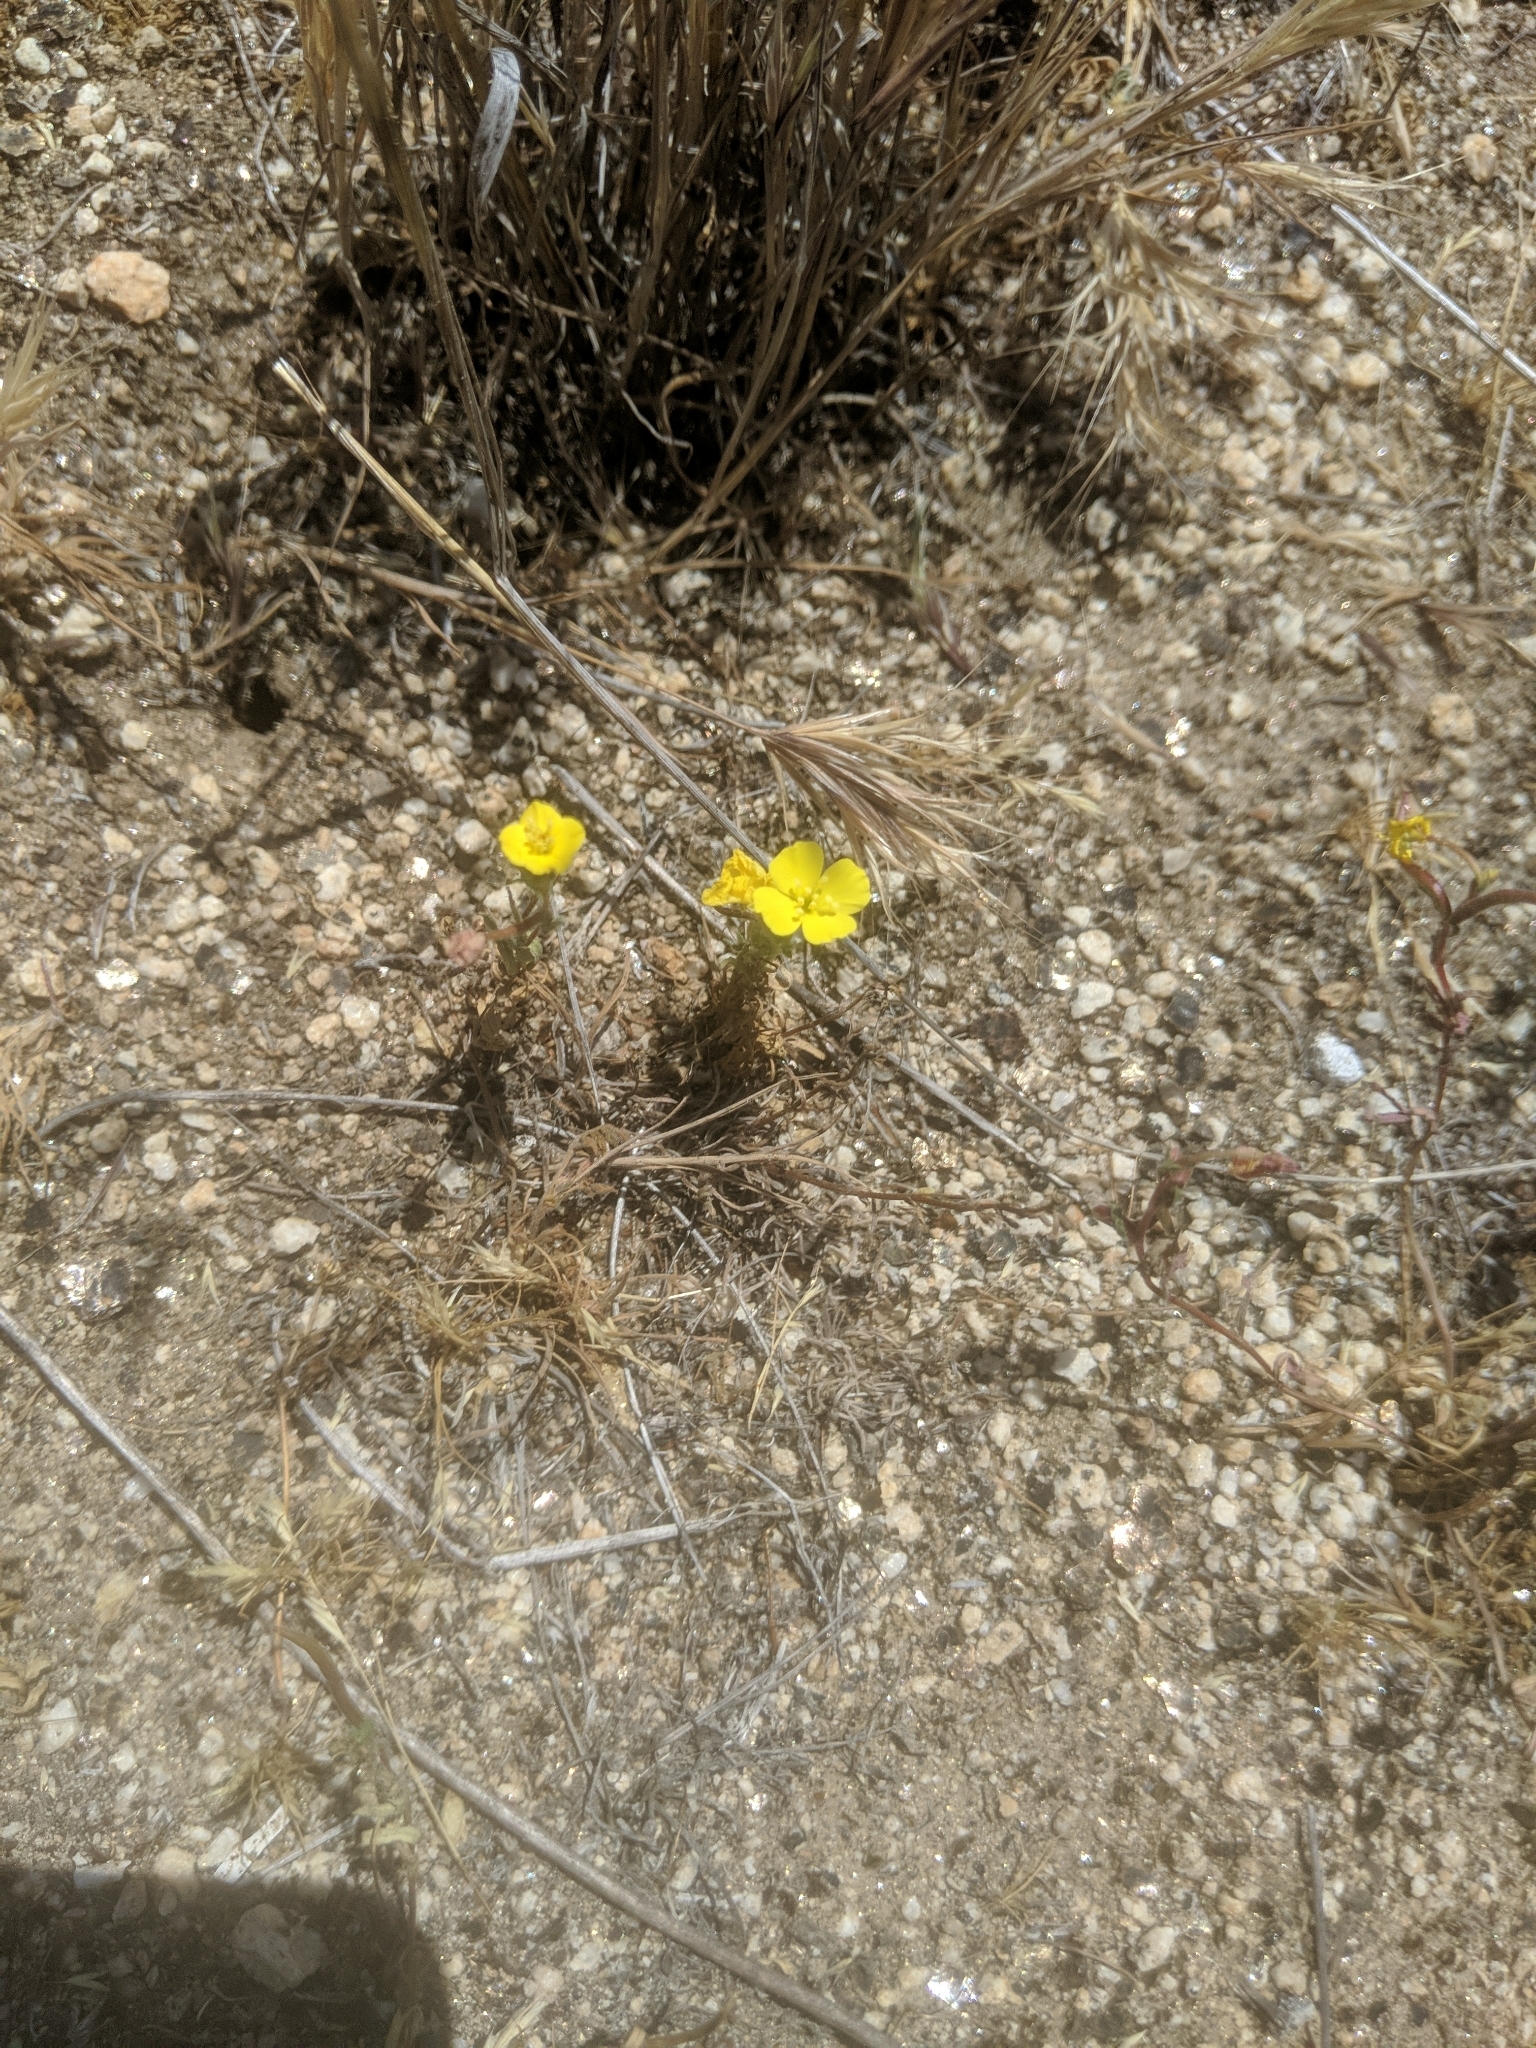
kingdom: Plantae
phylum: Tracheophyta
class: Magnoliopsida
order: Myrtales
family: Onagraceae
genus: Camissoniopsis
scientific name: Camissoniopsis bistorta
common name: Southern suncup
